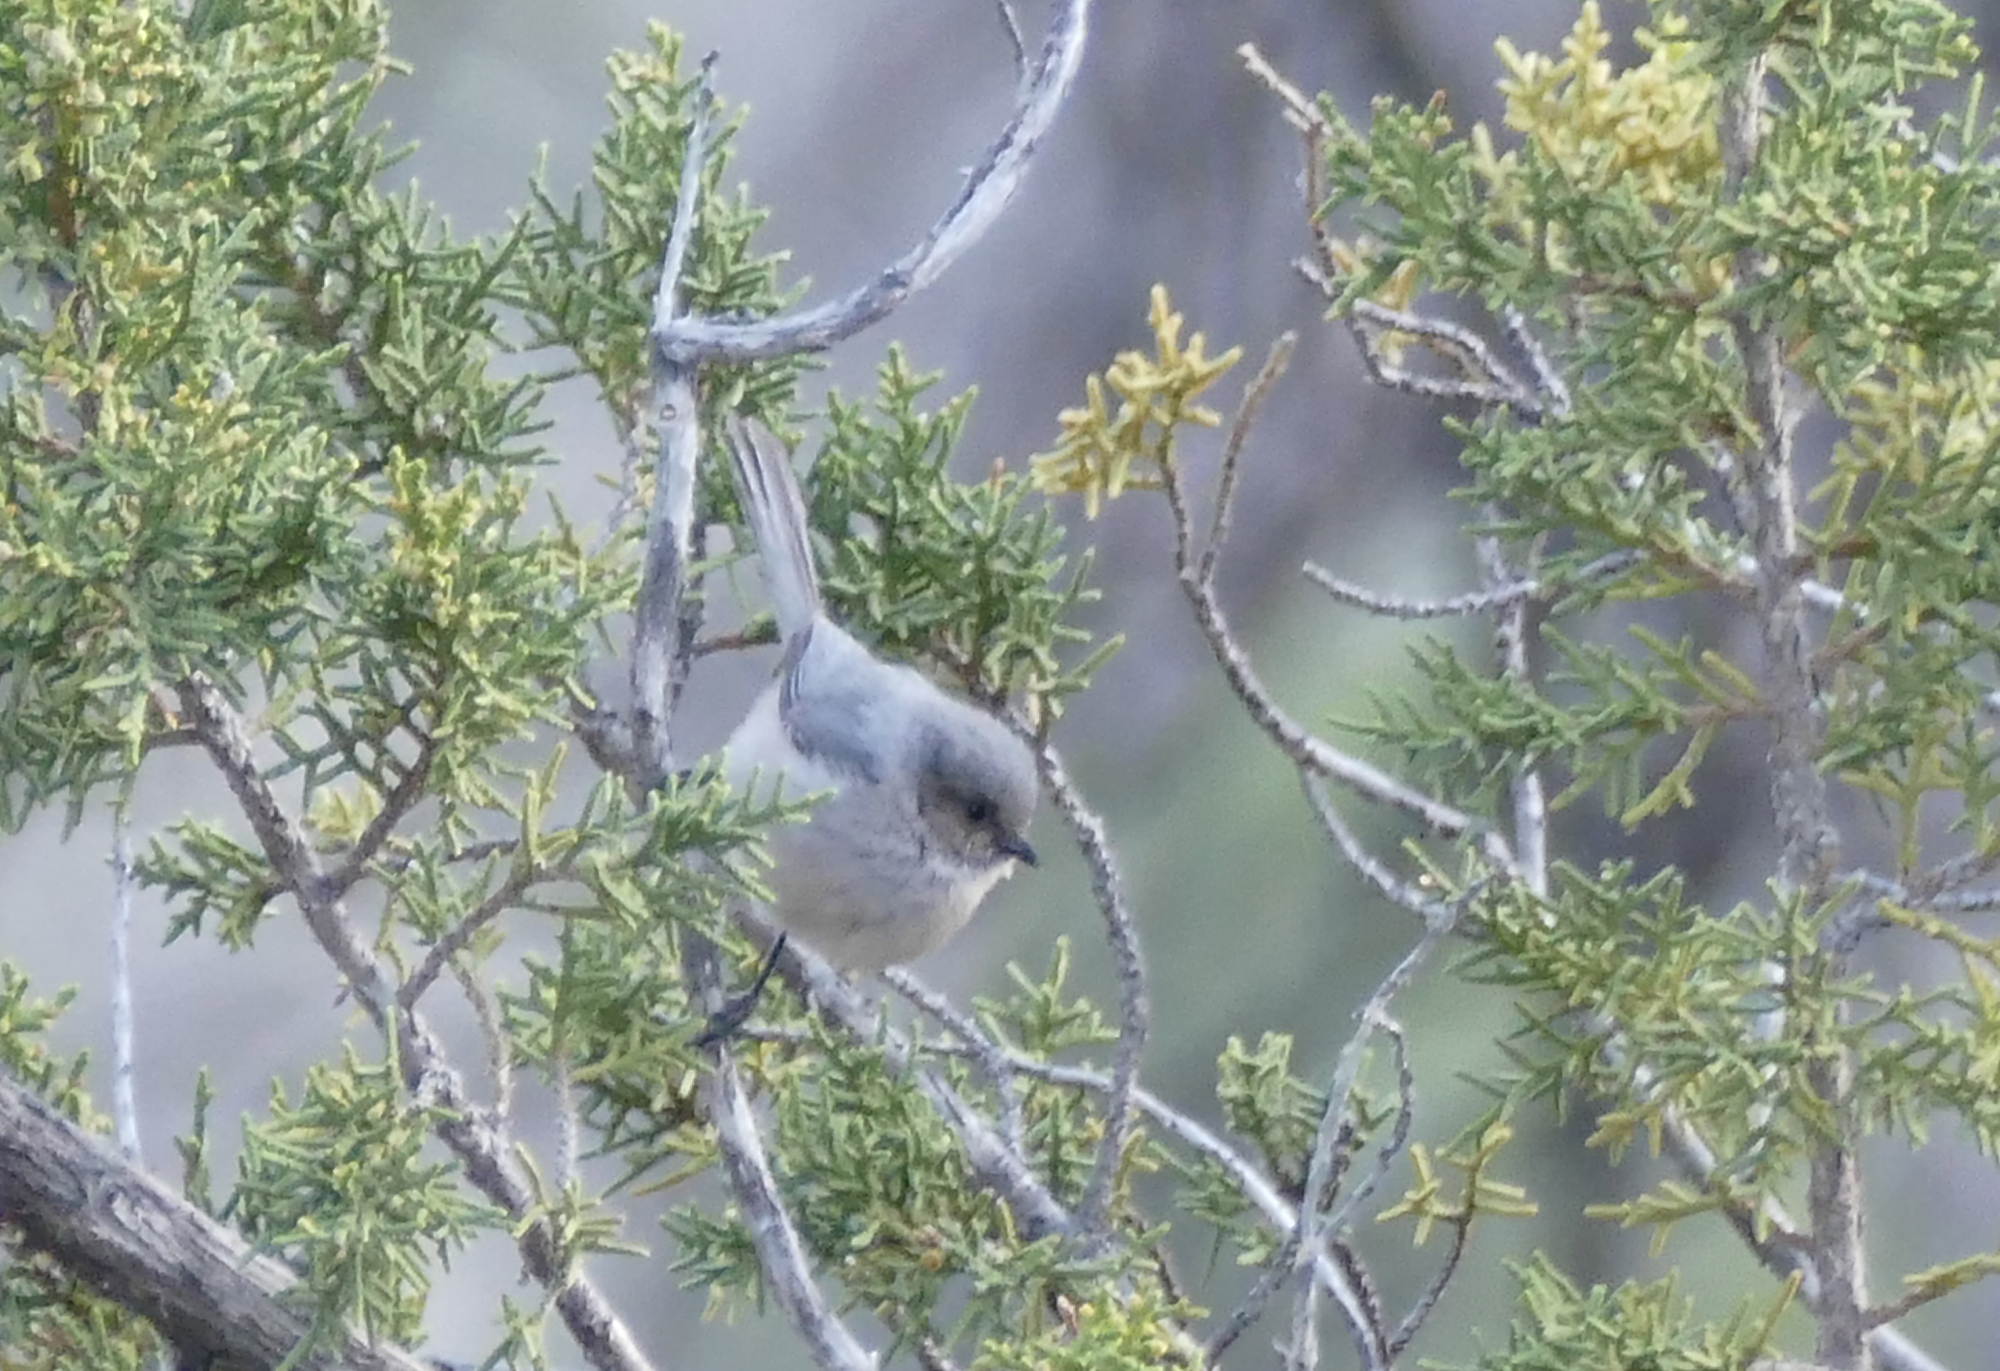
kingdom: Animalia
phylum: Chordata
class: Aves
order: Passeriformes
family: Aegithalidae
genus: Psaltriparus
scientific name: Psaltriparus minimus
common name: American bushtit
